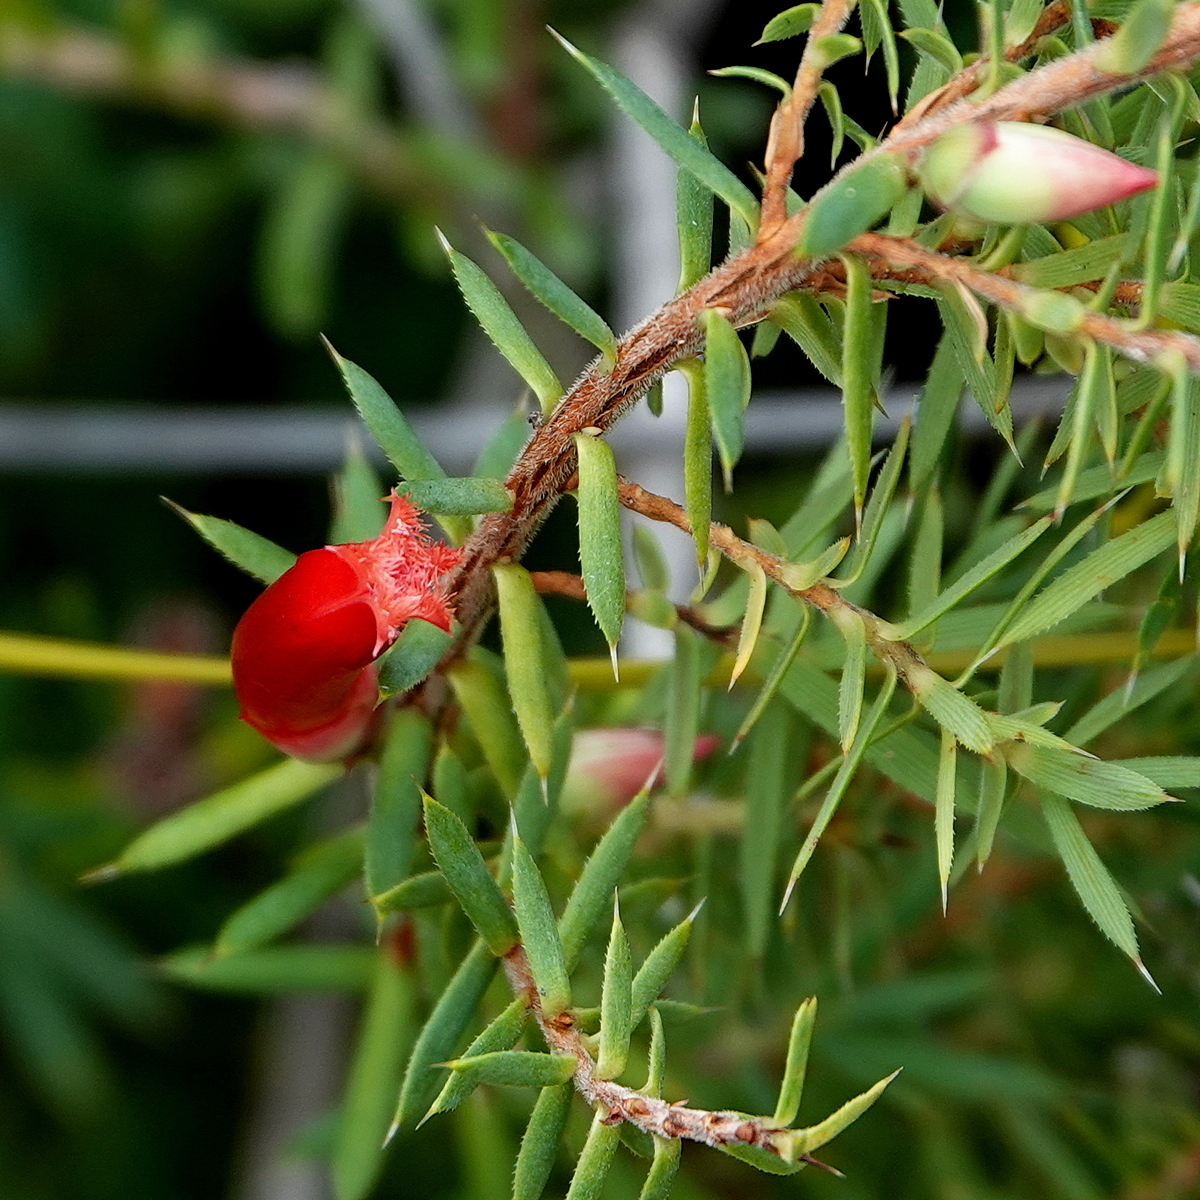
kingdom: Plantae
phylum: Tracheophyta
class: Magnoliopsida
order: Ericales
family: Ericaceae
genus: Styphelia
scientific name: Styphelia humifusa
